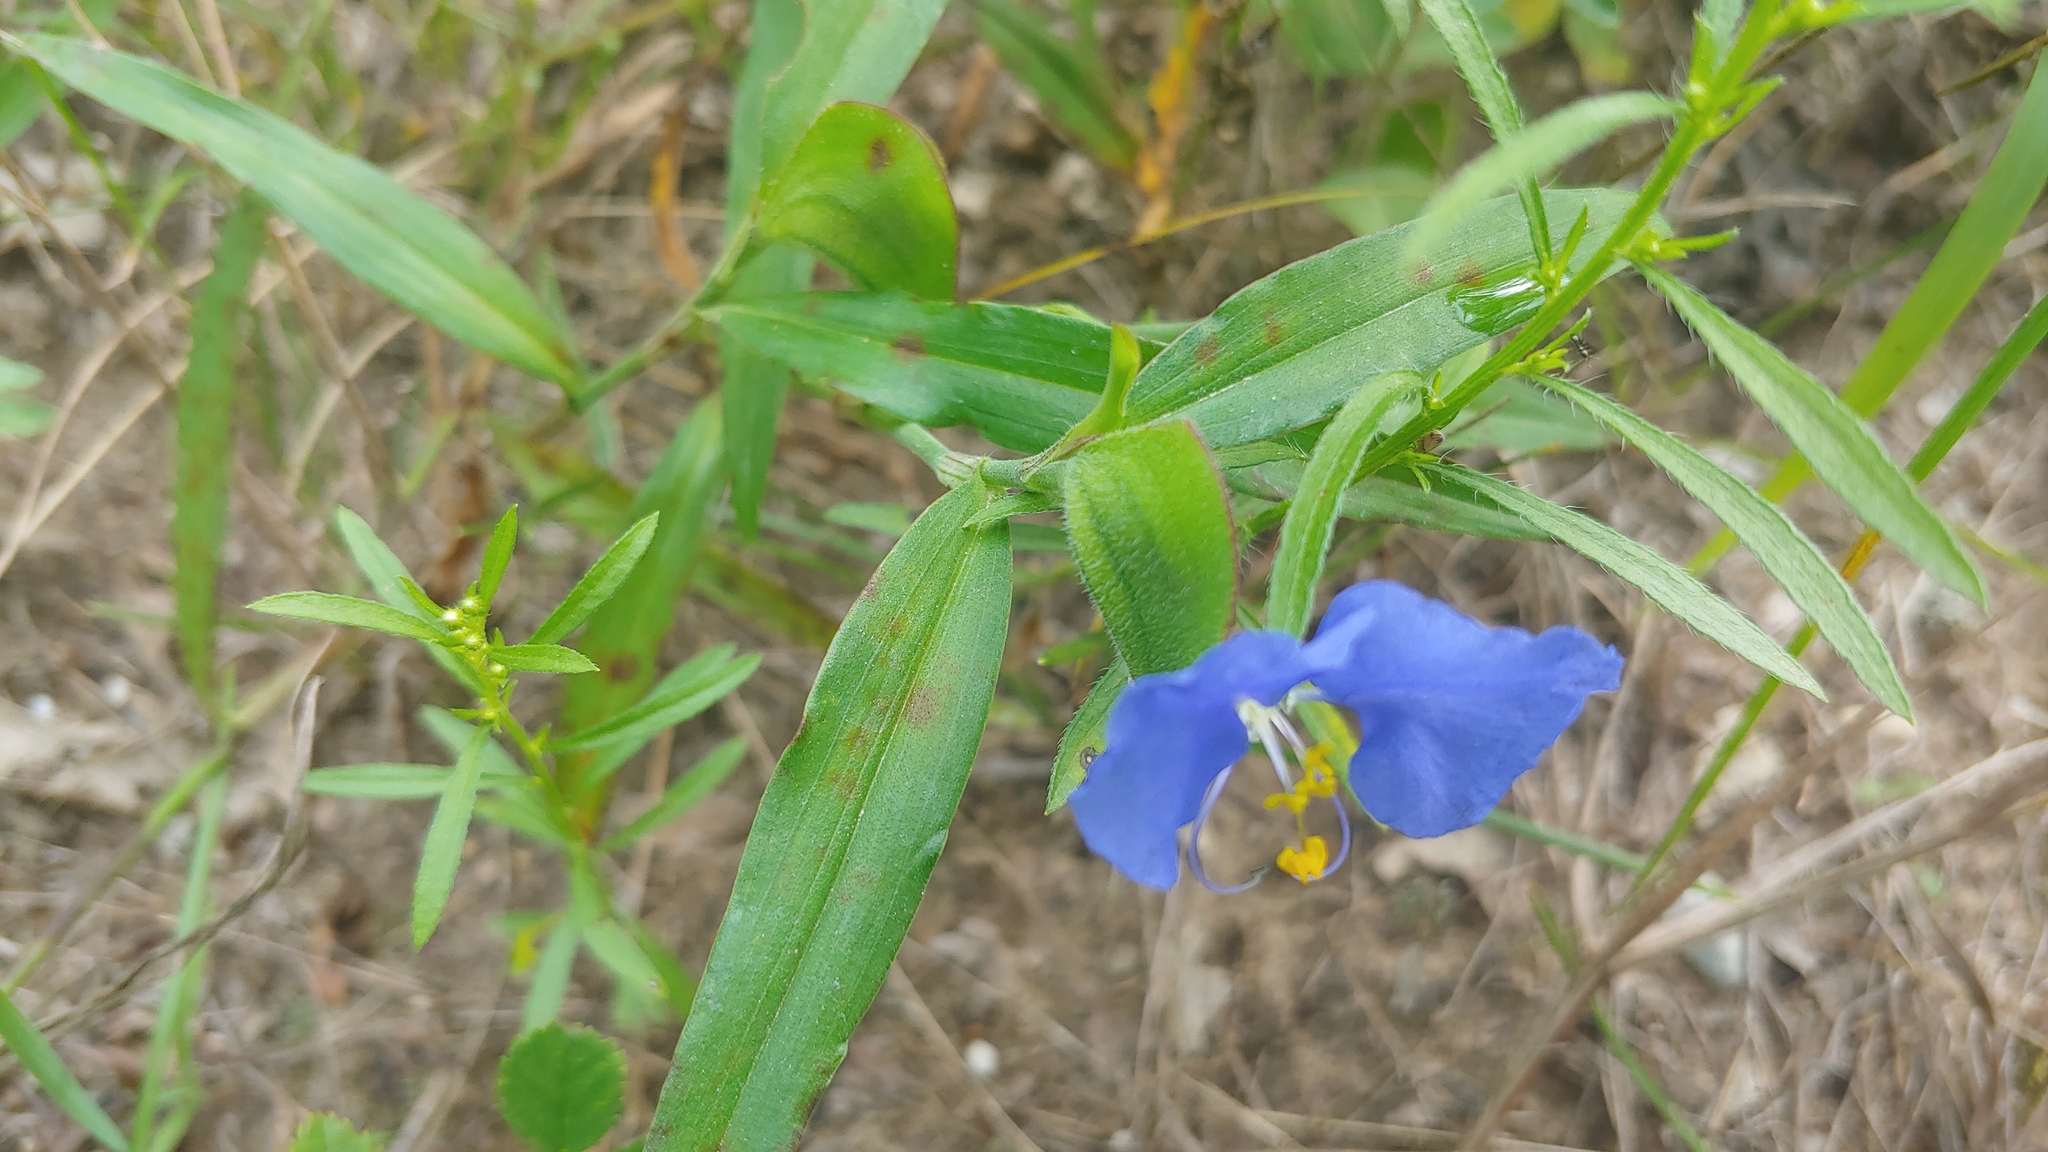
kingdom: Plantae
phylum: Tracheophyta
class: Liliopsida
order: Commelinales
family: Commelinaceae
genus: Commelina
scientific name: Commelina erecta
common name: Blousel blommetjie
